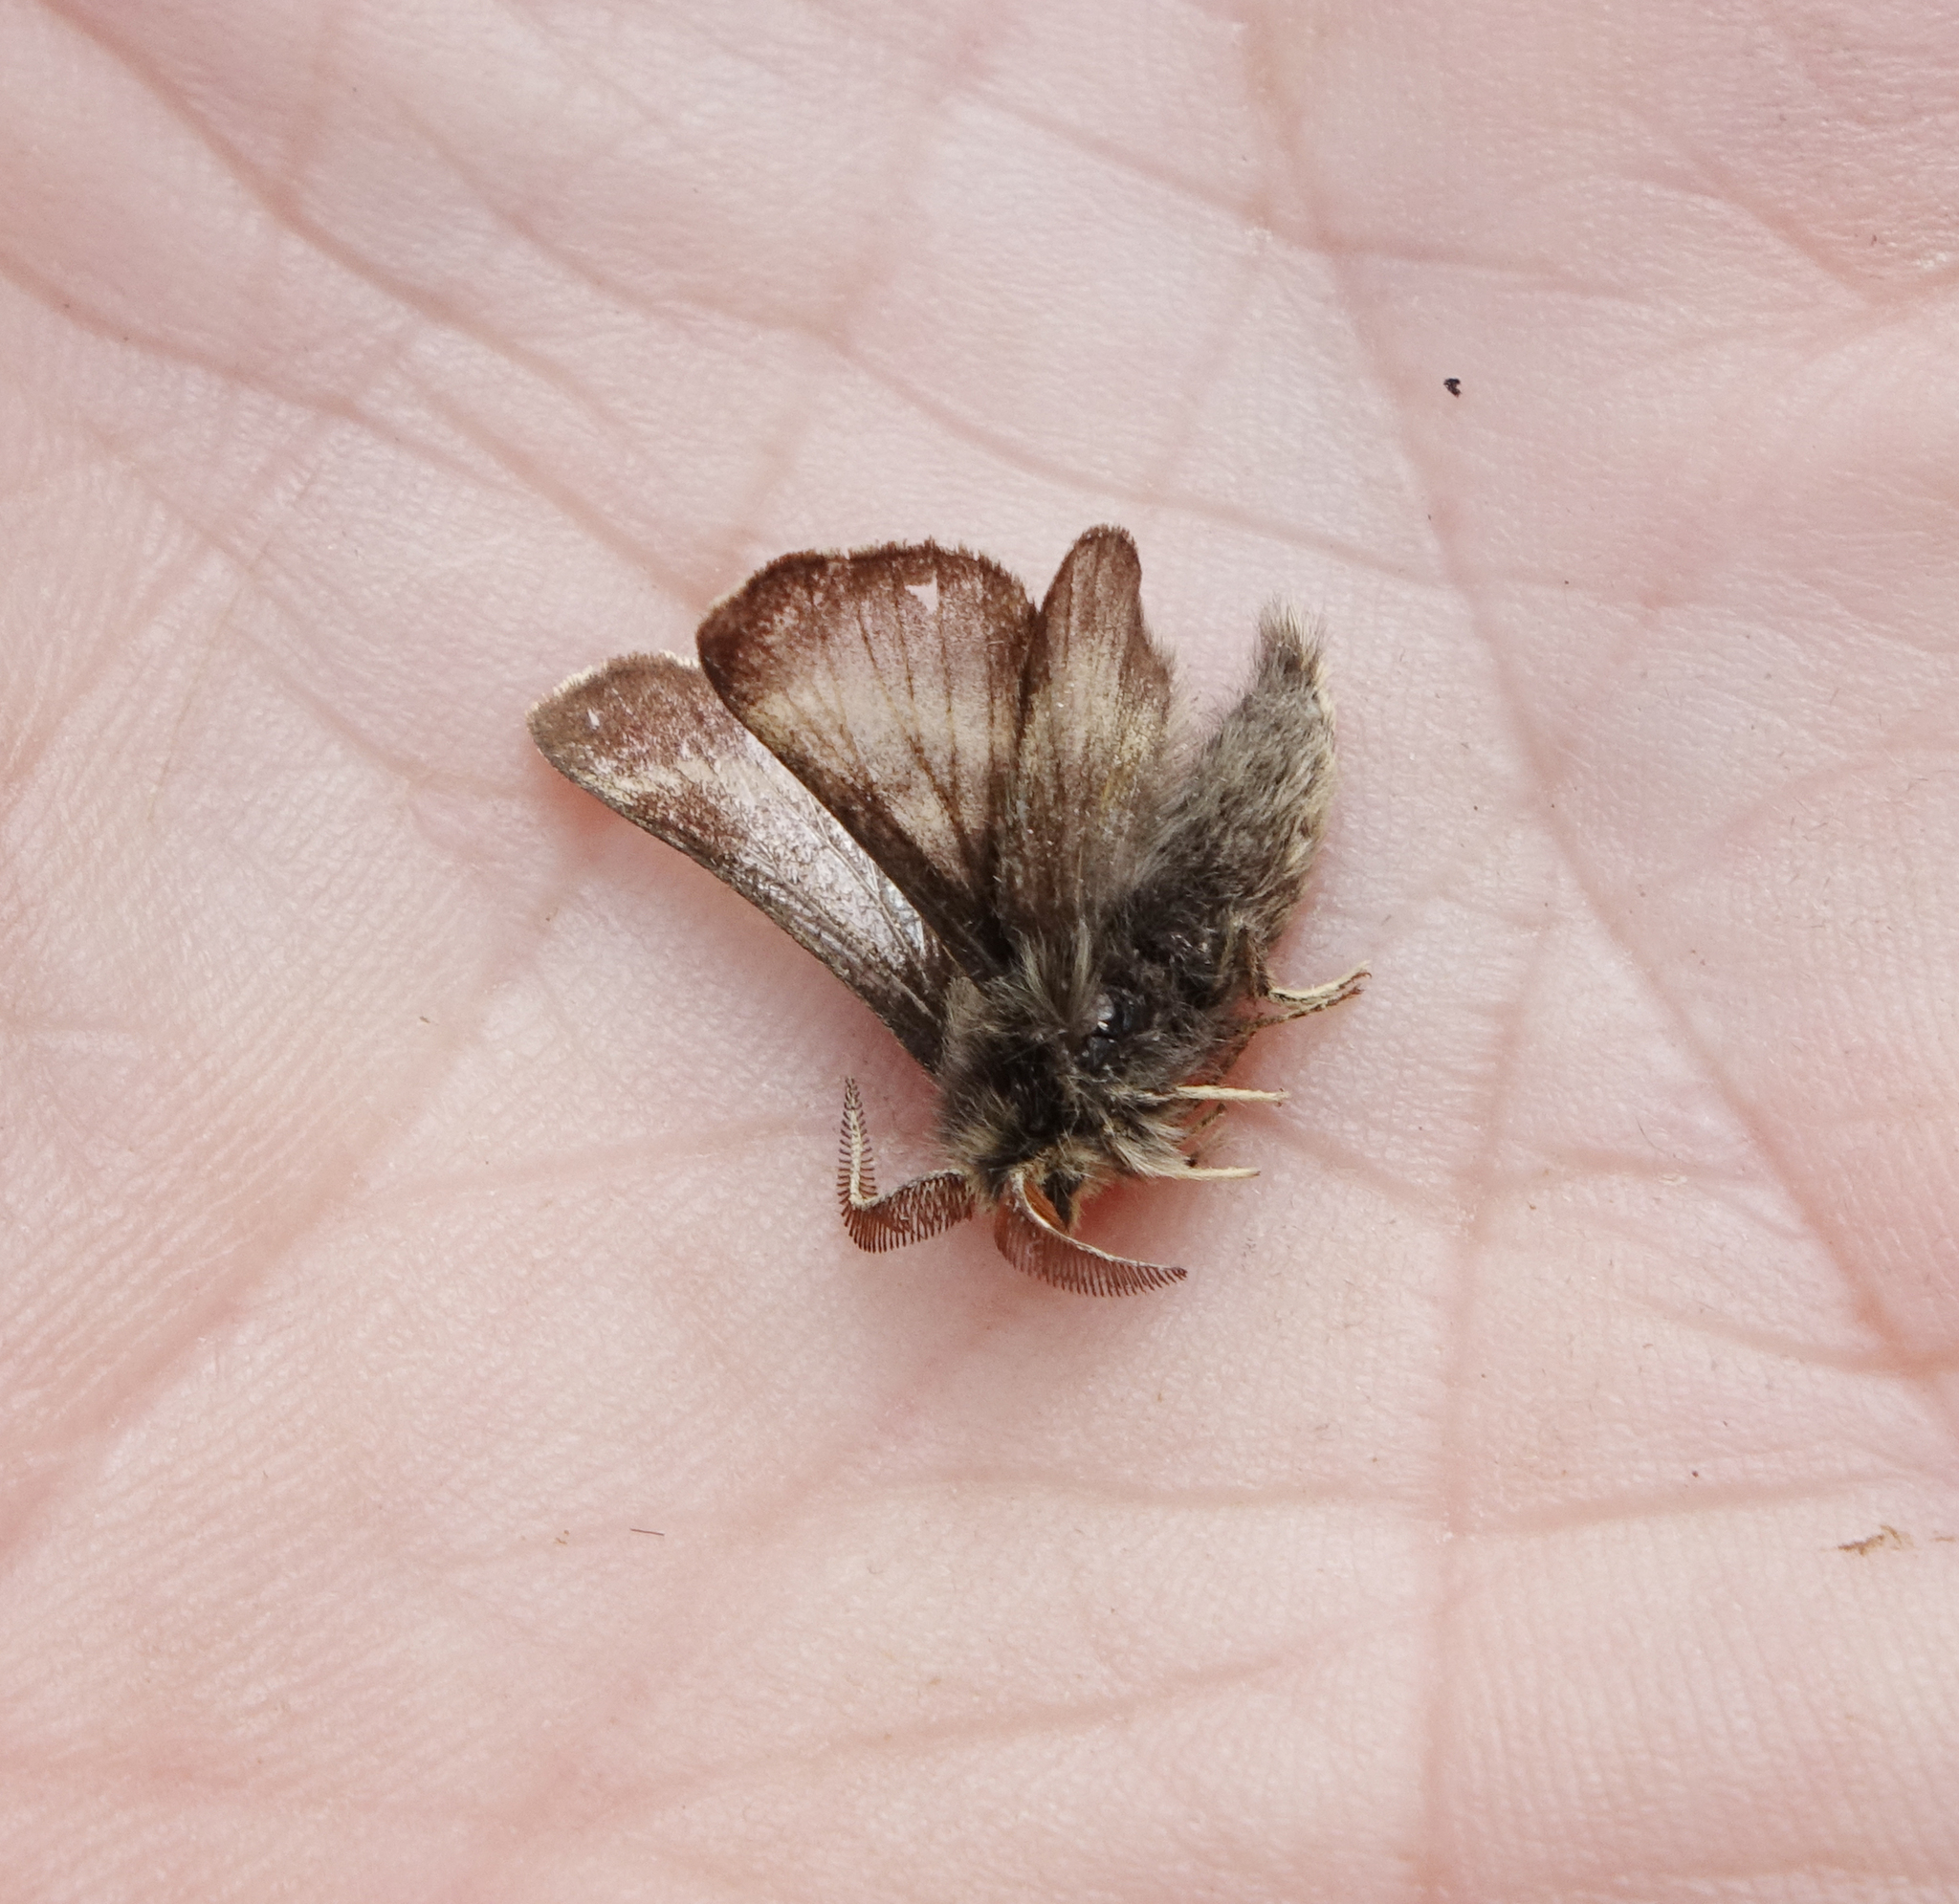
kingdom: Animalia
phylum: Arthropoda
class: Insecta
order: Lepidoptera
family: Lasiocampidae
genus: Malacosoma
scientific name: Malacosoma franconica
